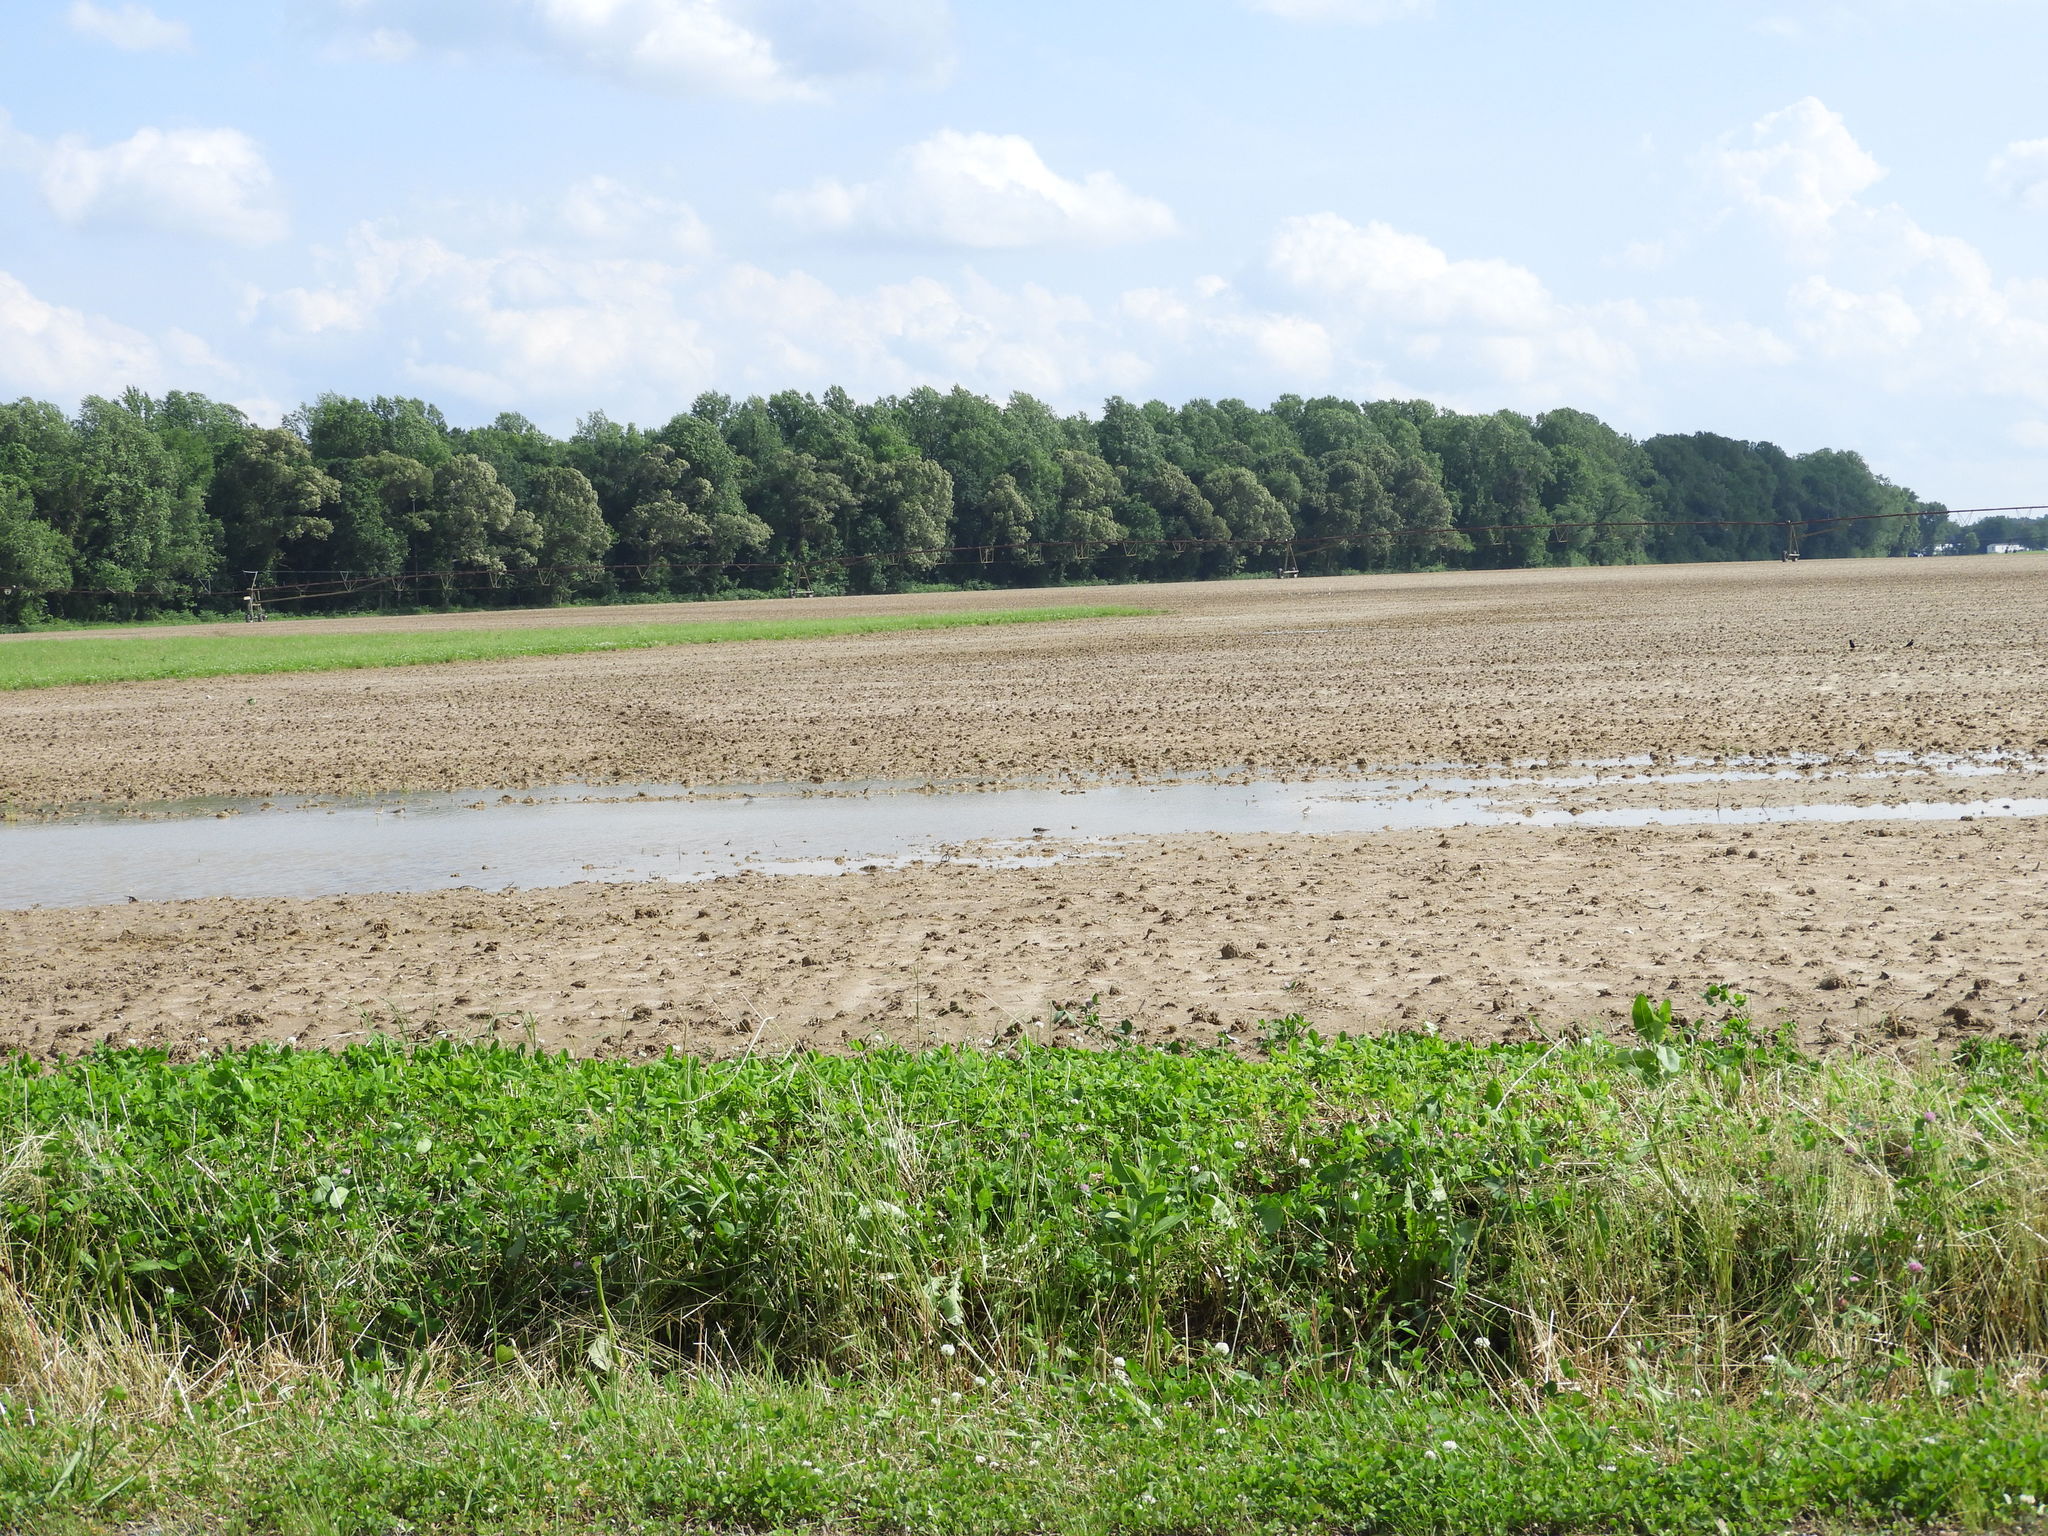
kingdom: Animalia
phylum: Chordata
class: Aves
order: Charadriiformes
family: Scolopacidae
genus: Calidris
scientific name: Calidris minutilla
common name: Least sandpiper
